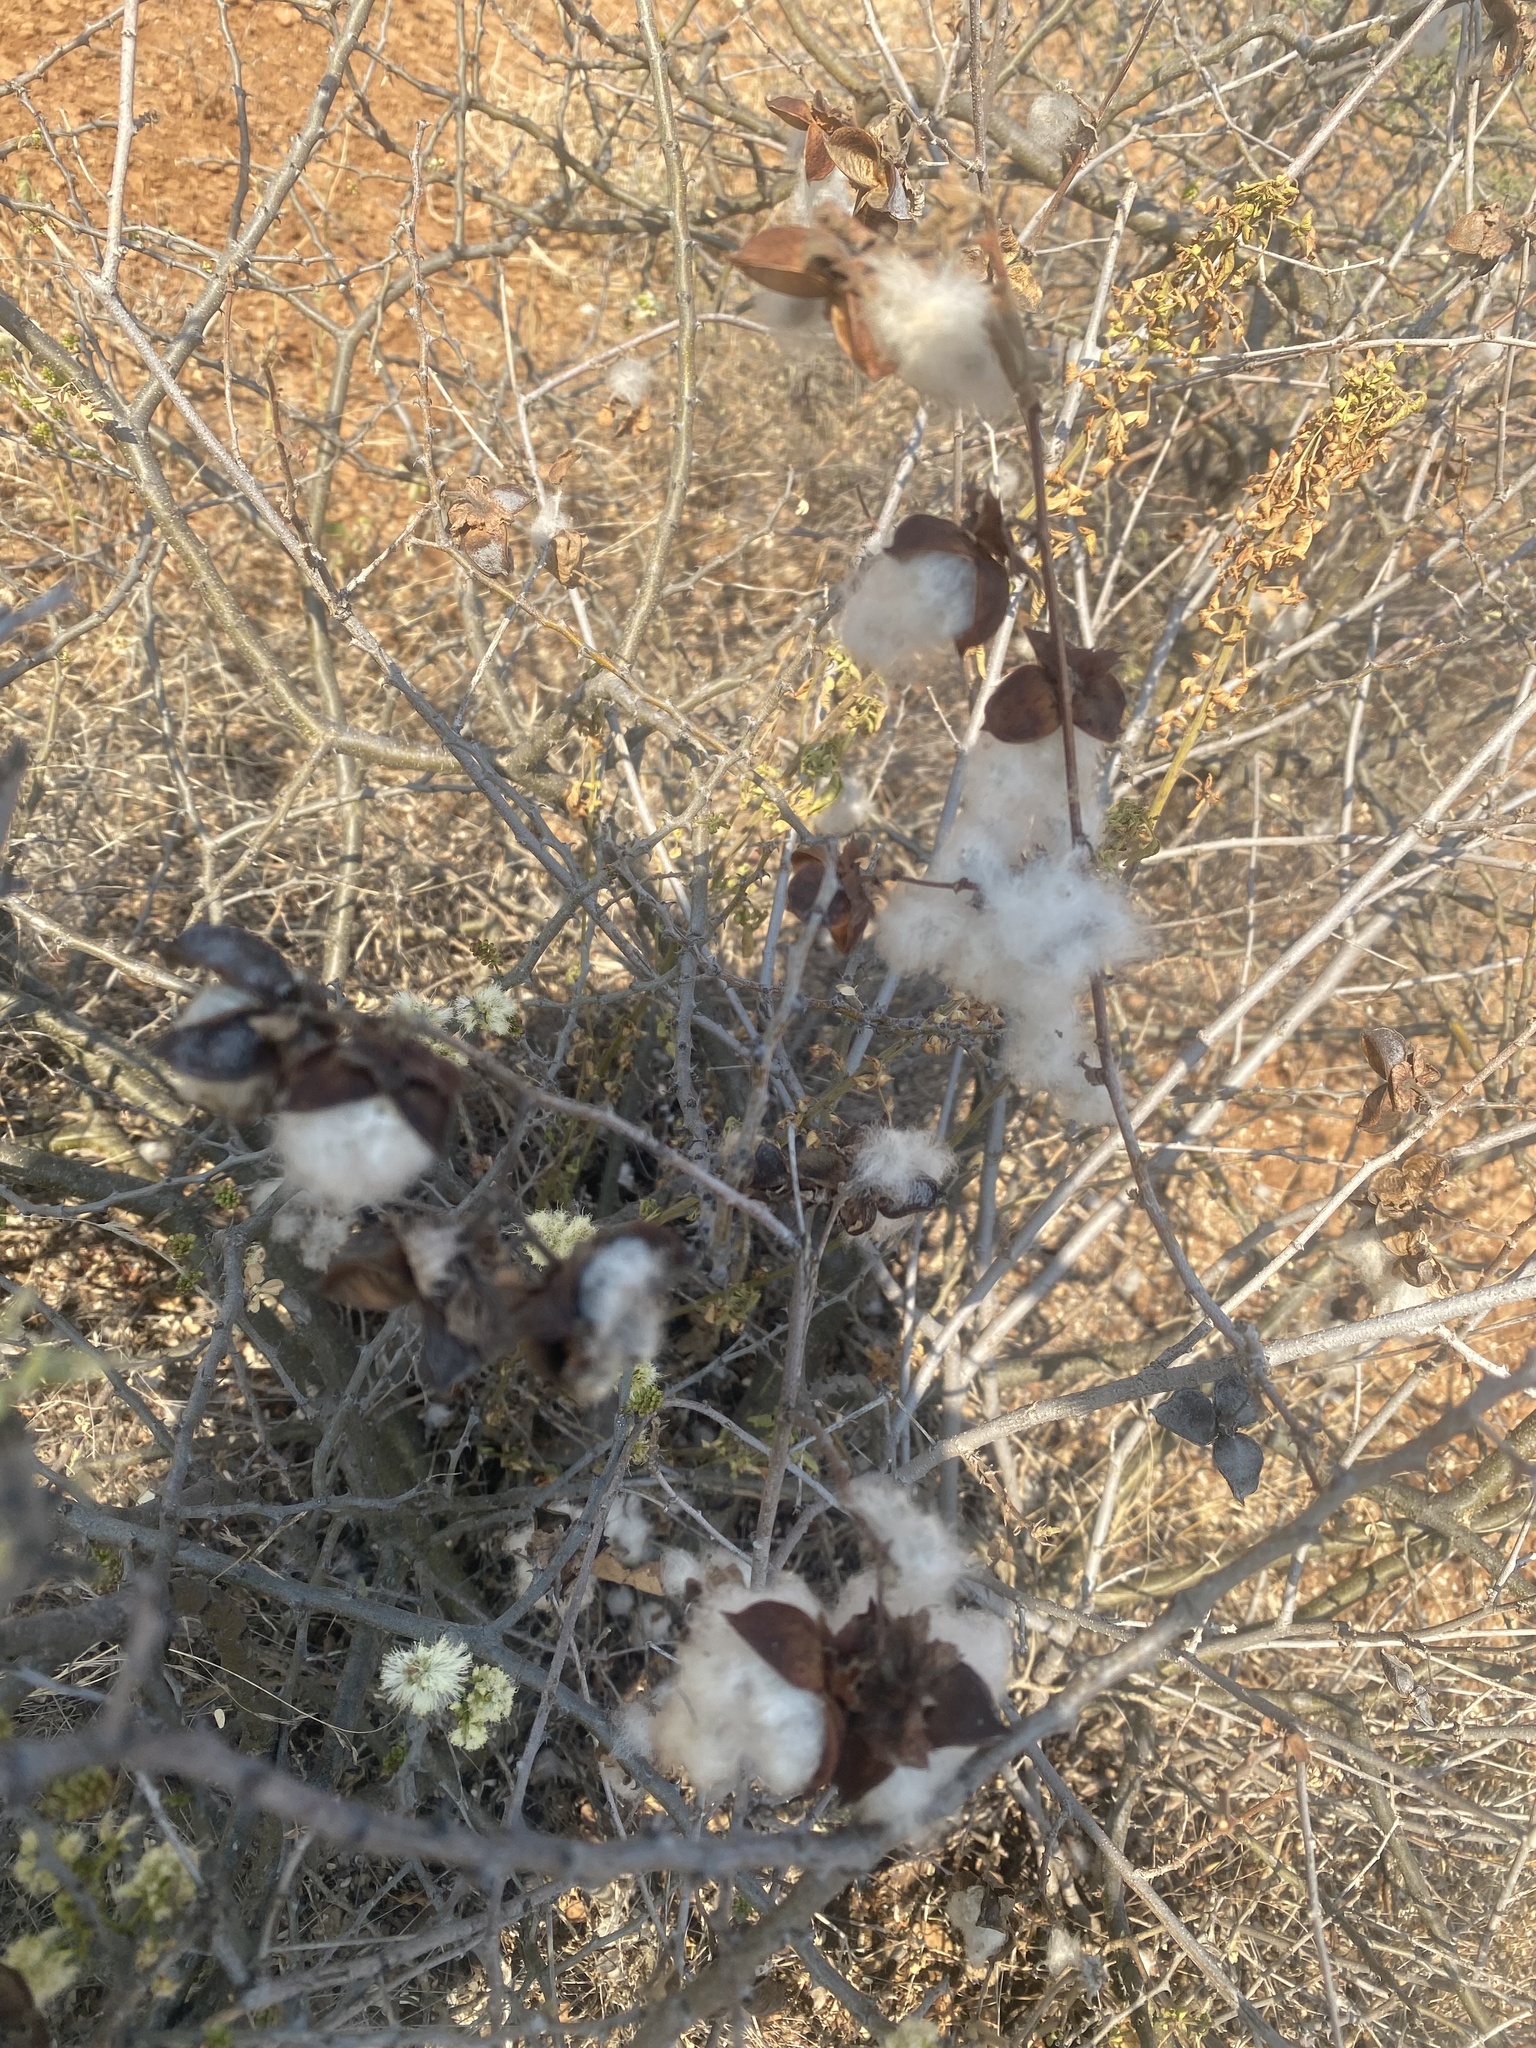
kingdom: Plantae
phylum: Tracheophyta
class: Magnoliopsida
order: Malvales
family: Malvaceae
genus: Gossypium
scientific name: Gossypium herbaceum
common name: Levant cotton
